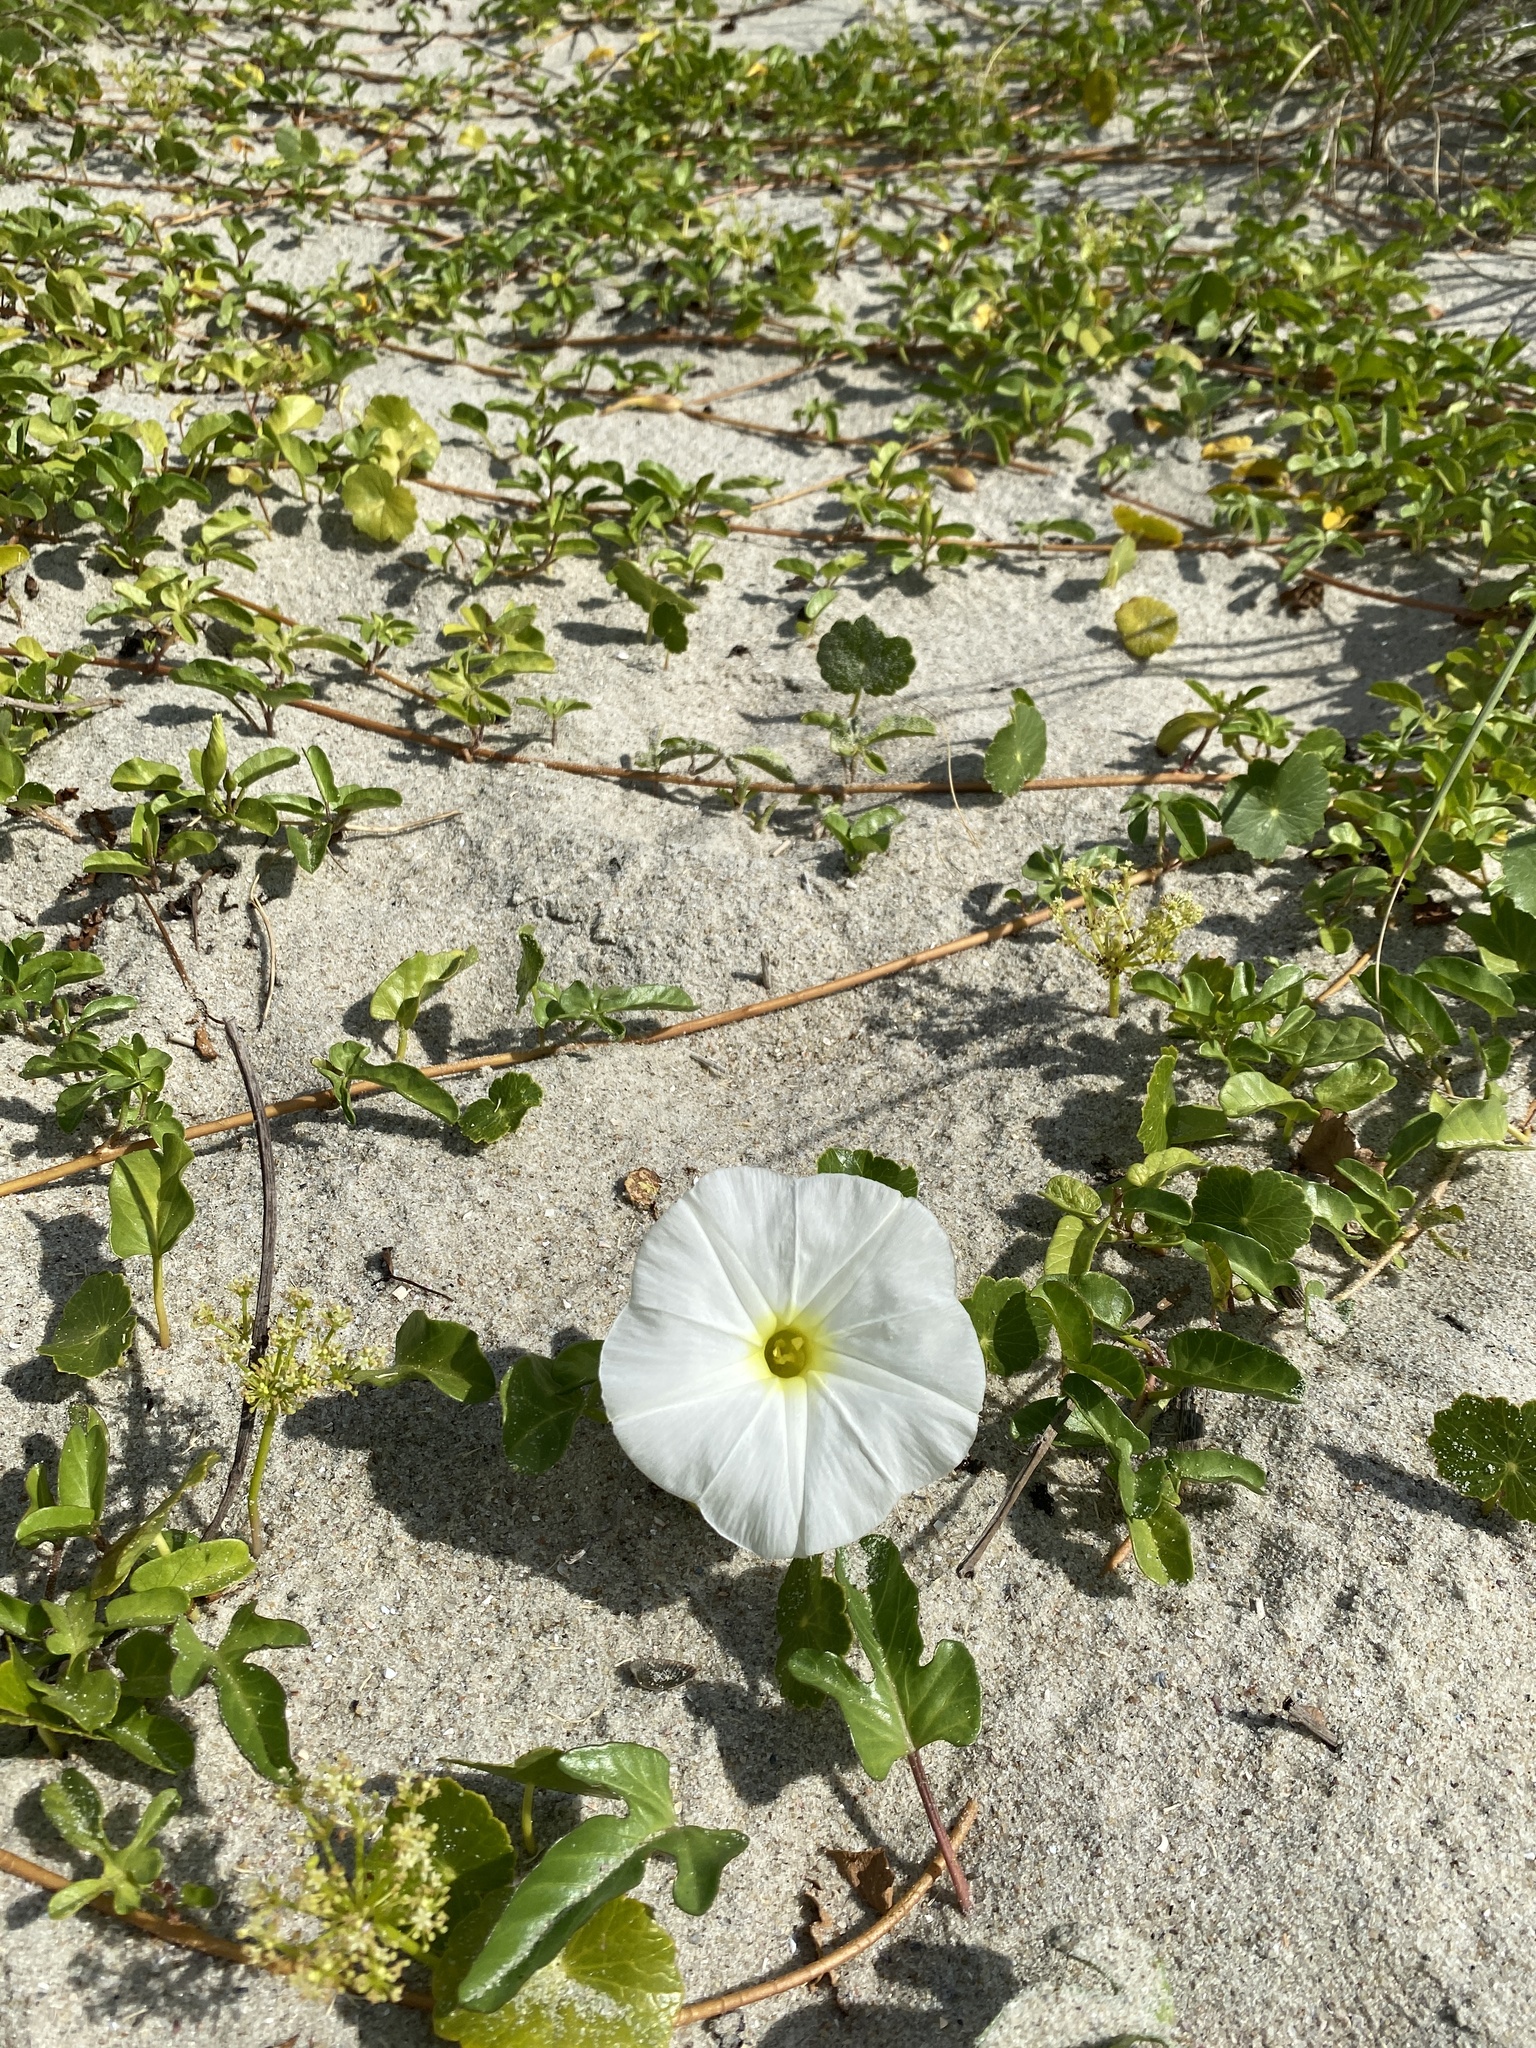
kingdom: Plantae
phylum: Tracheophyta
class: Magnoliopsida
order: Solanales
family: Convolvulaceae
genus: Ipomoea
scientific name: Ipomoea imperati
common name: Fiddle-leaf morning-glory
